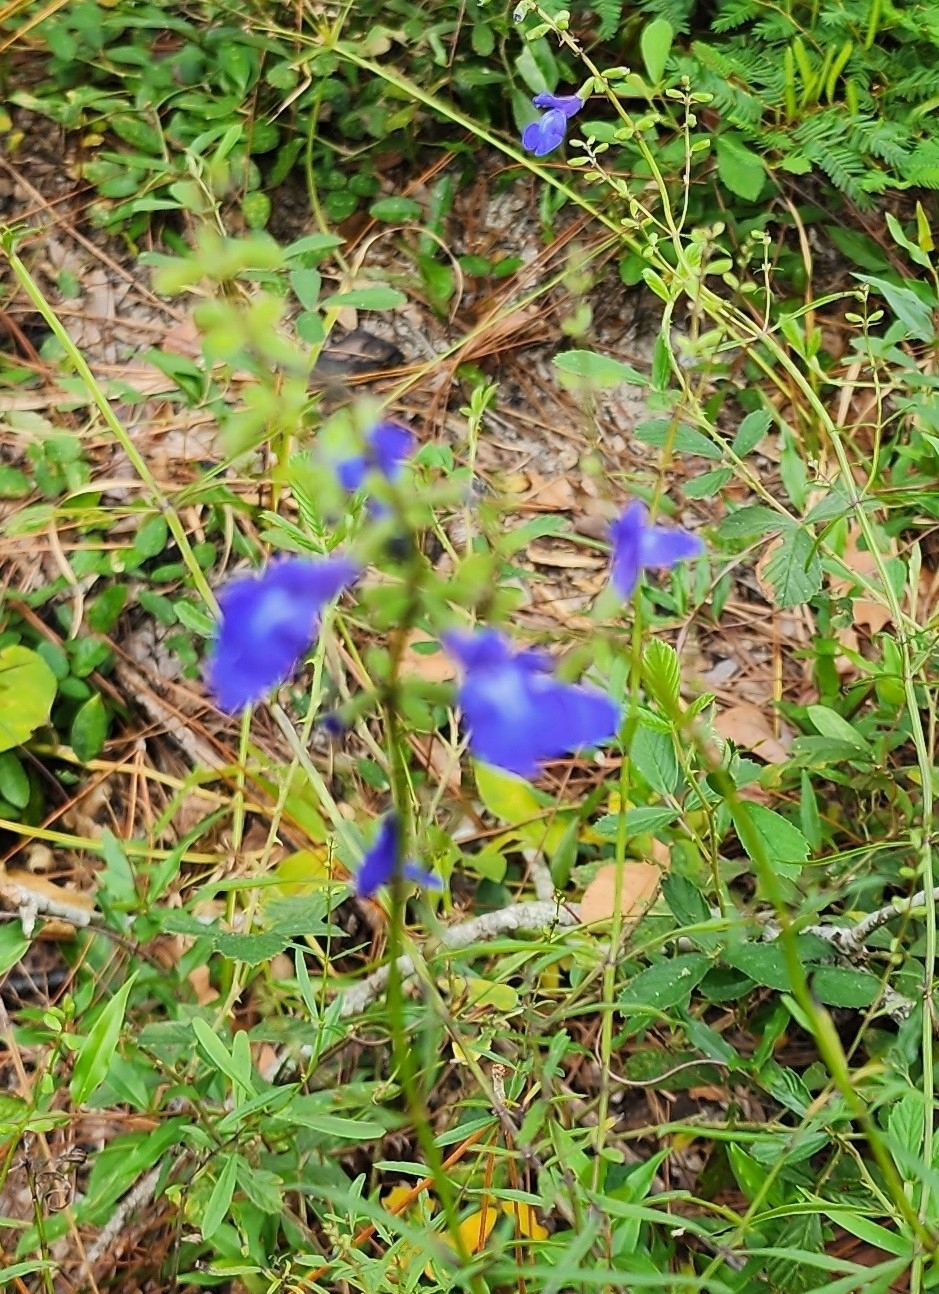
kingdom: Plantae
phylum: Tracheophyta
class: Magnoliopsida
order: Lamiales
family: Lamiaceae
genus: Salvia
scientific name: Salvia azurea
